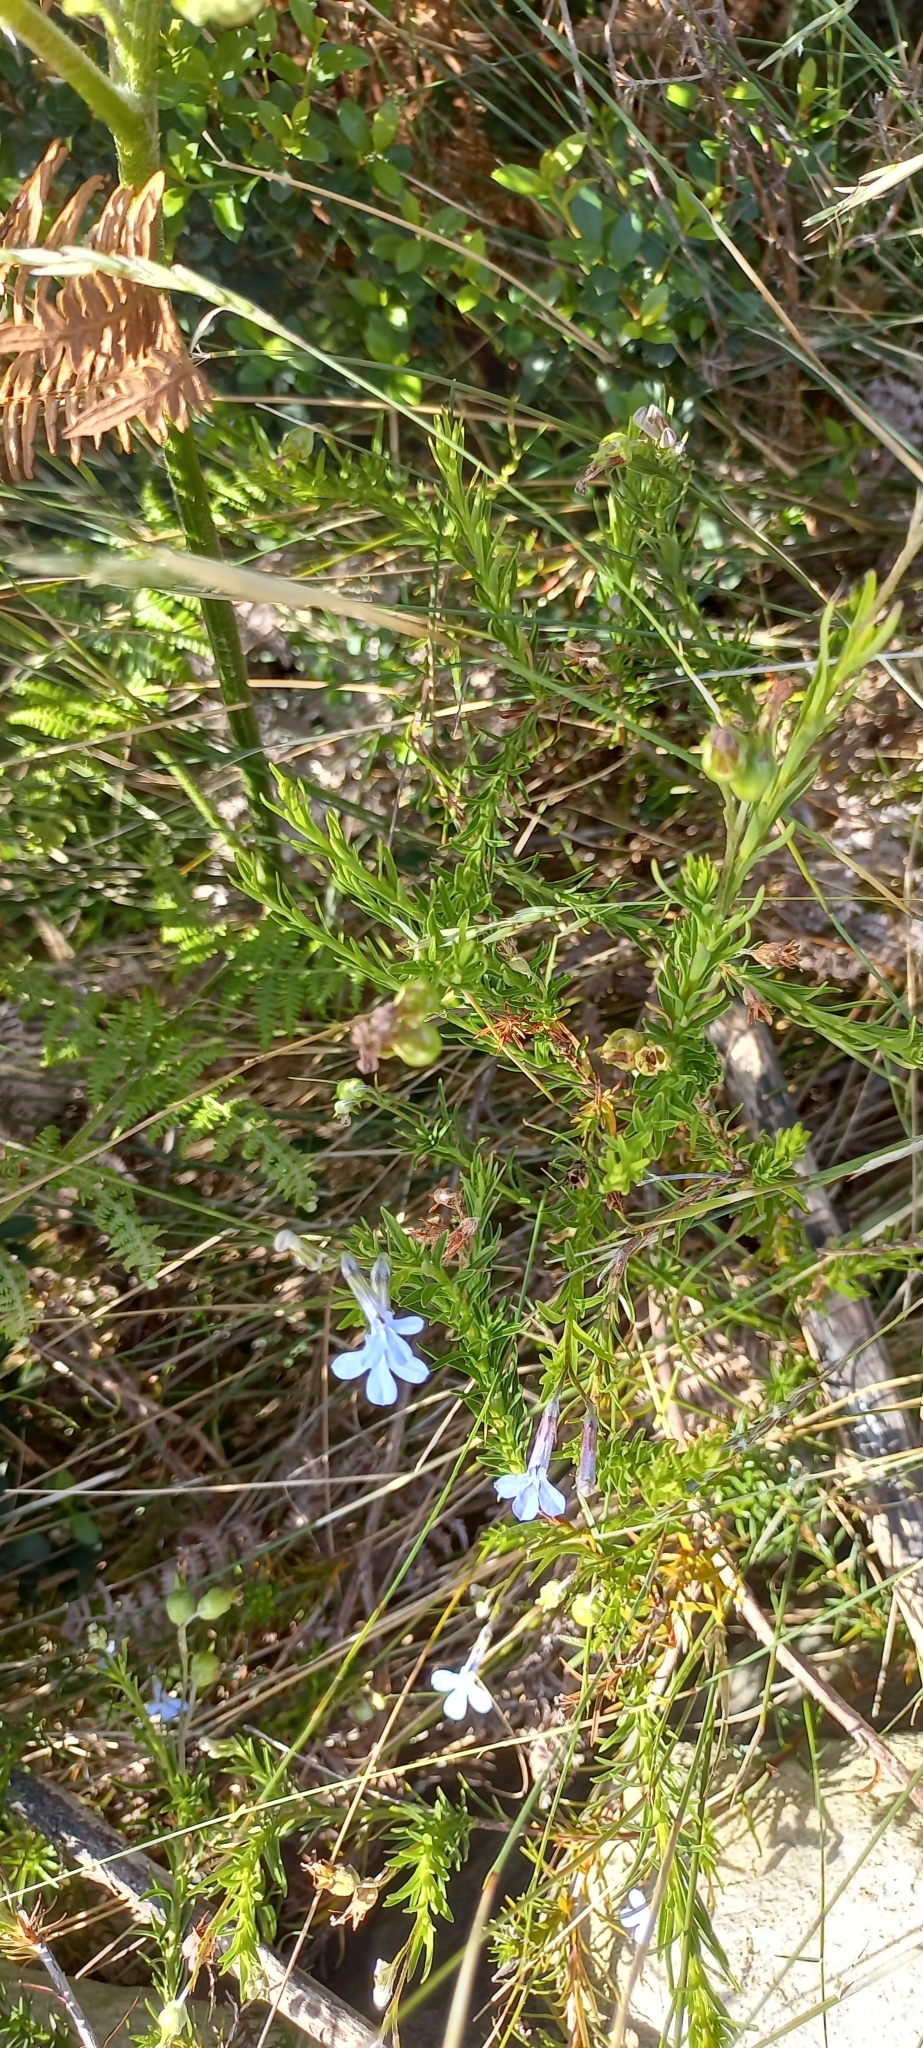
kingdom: Plantae
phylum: Tracheophyta
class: Magnoliopsida
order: Asterales
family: Campanulaceae
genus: Lobelia
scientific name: Lobelia pinifolia
